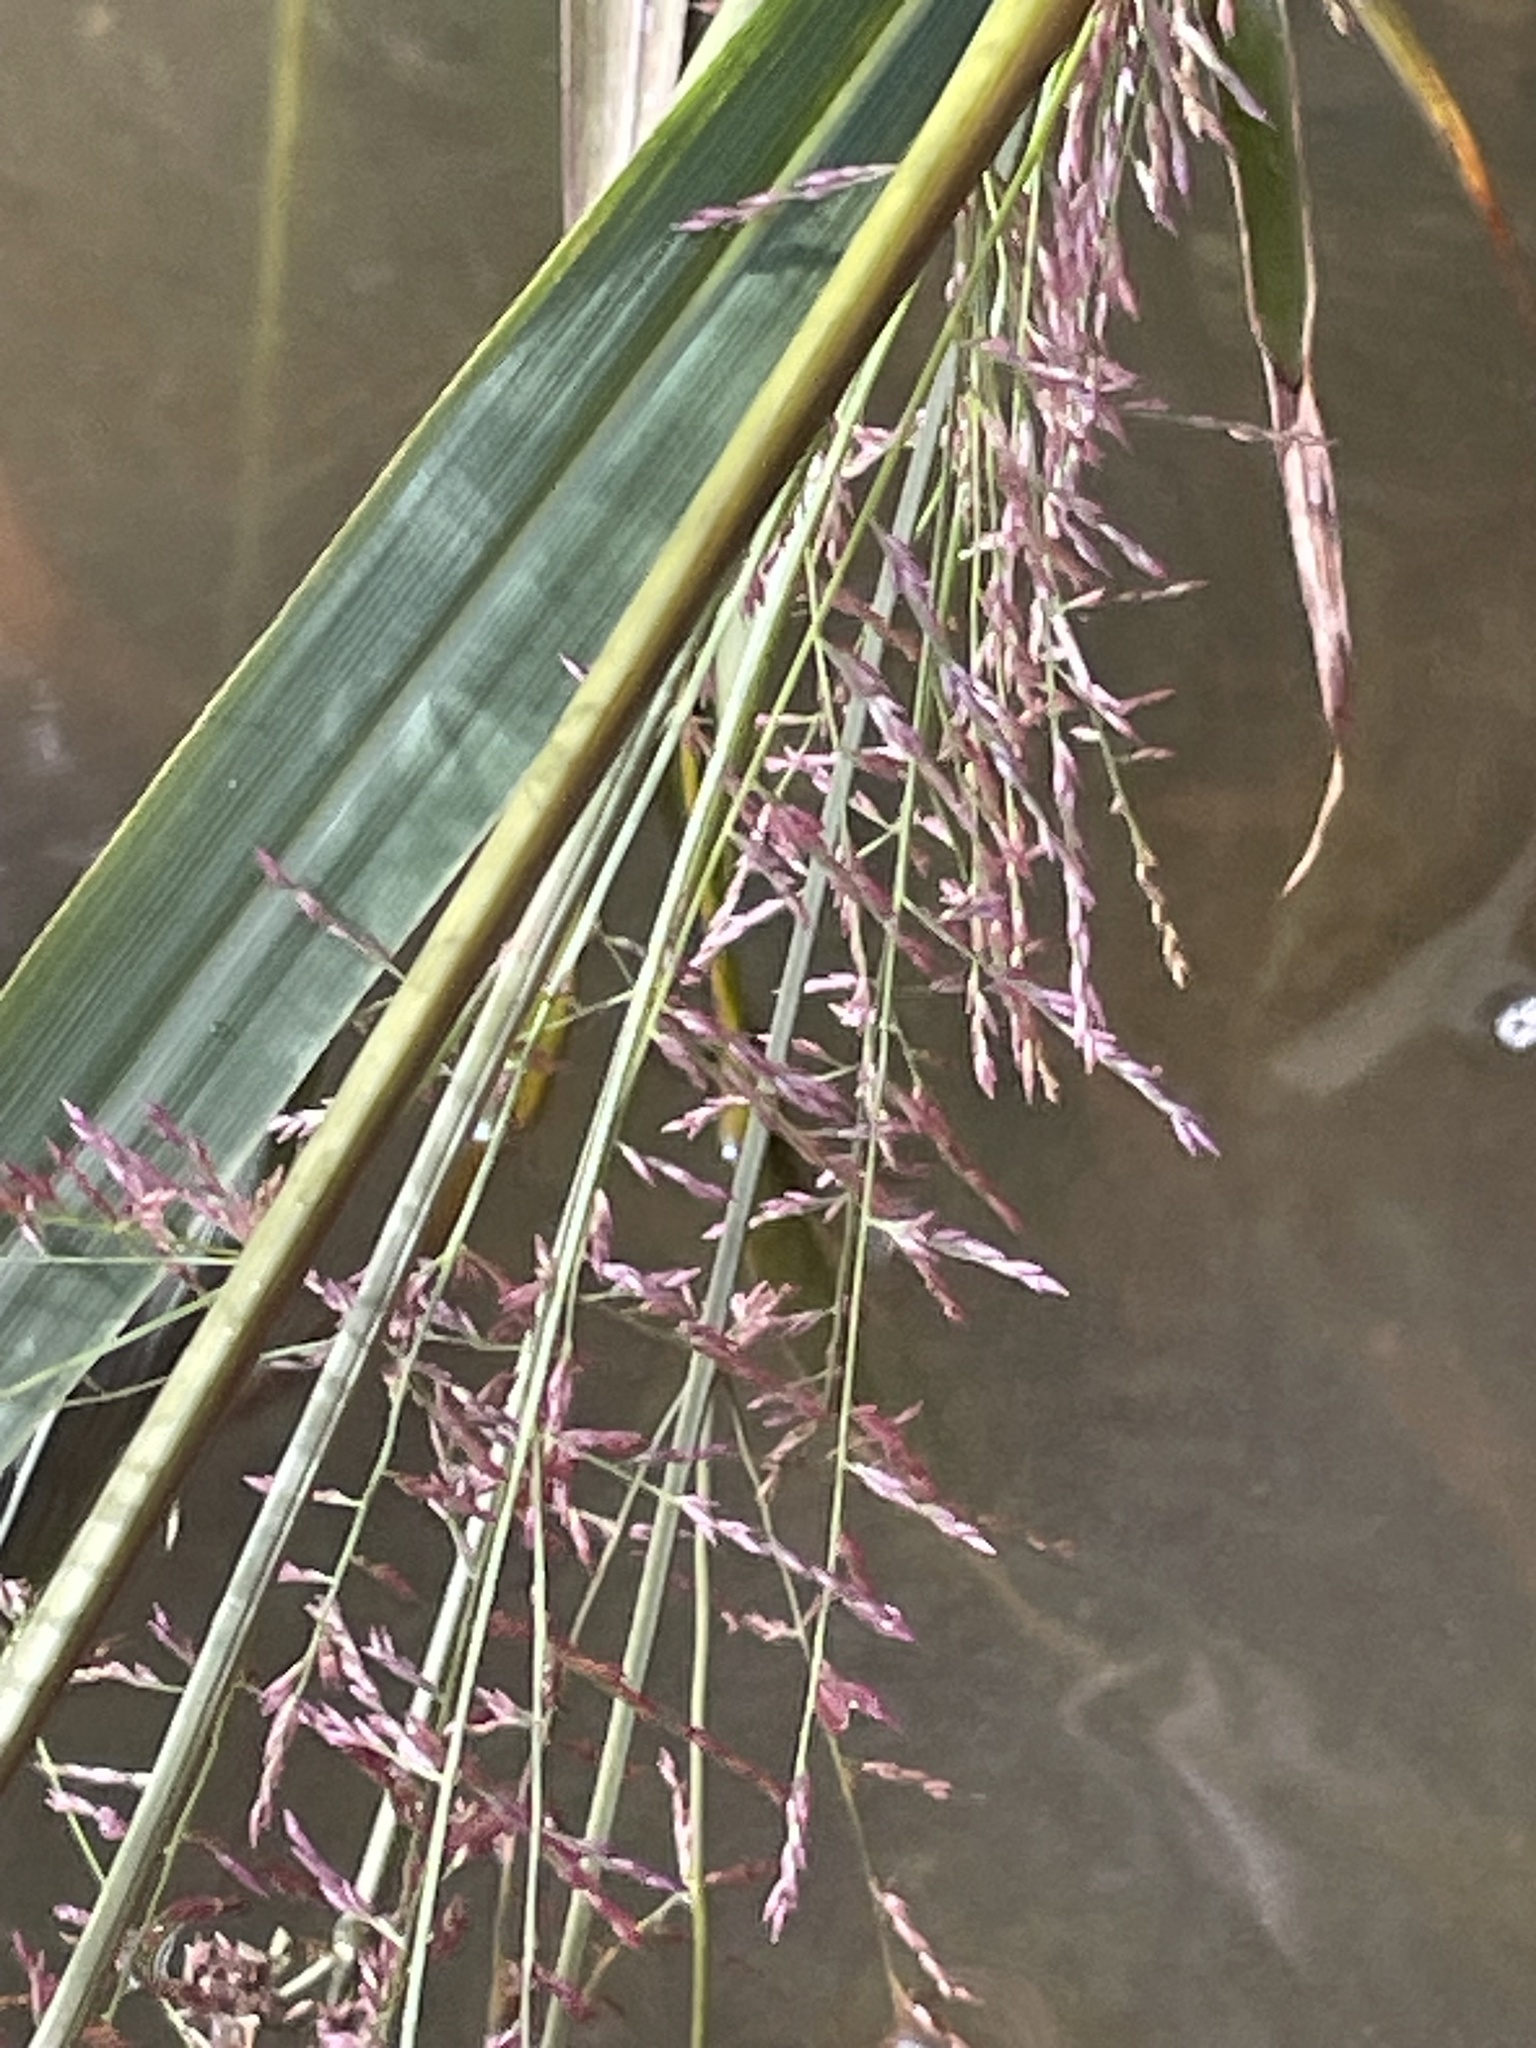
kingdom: Plantae
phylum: Tracheophyta
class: Liliopsida
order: Poales
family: Poaceae
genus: Coleataenia
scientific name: Coleataenia rigidula
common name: Redtop panicgrass
